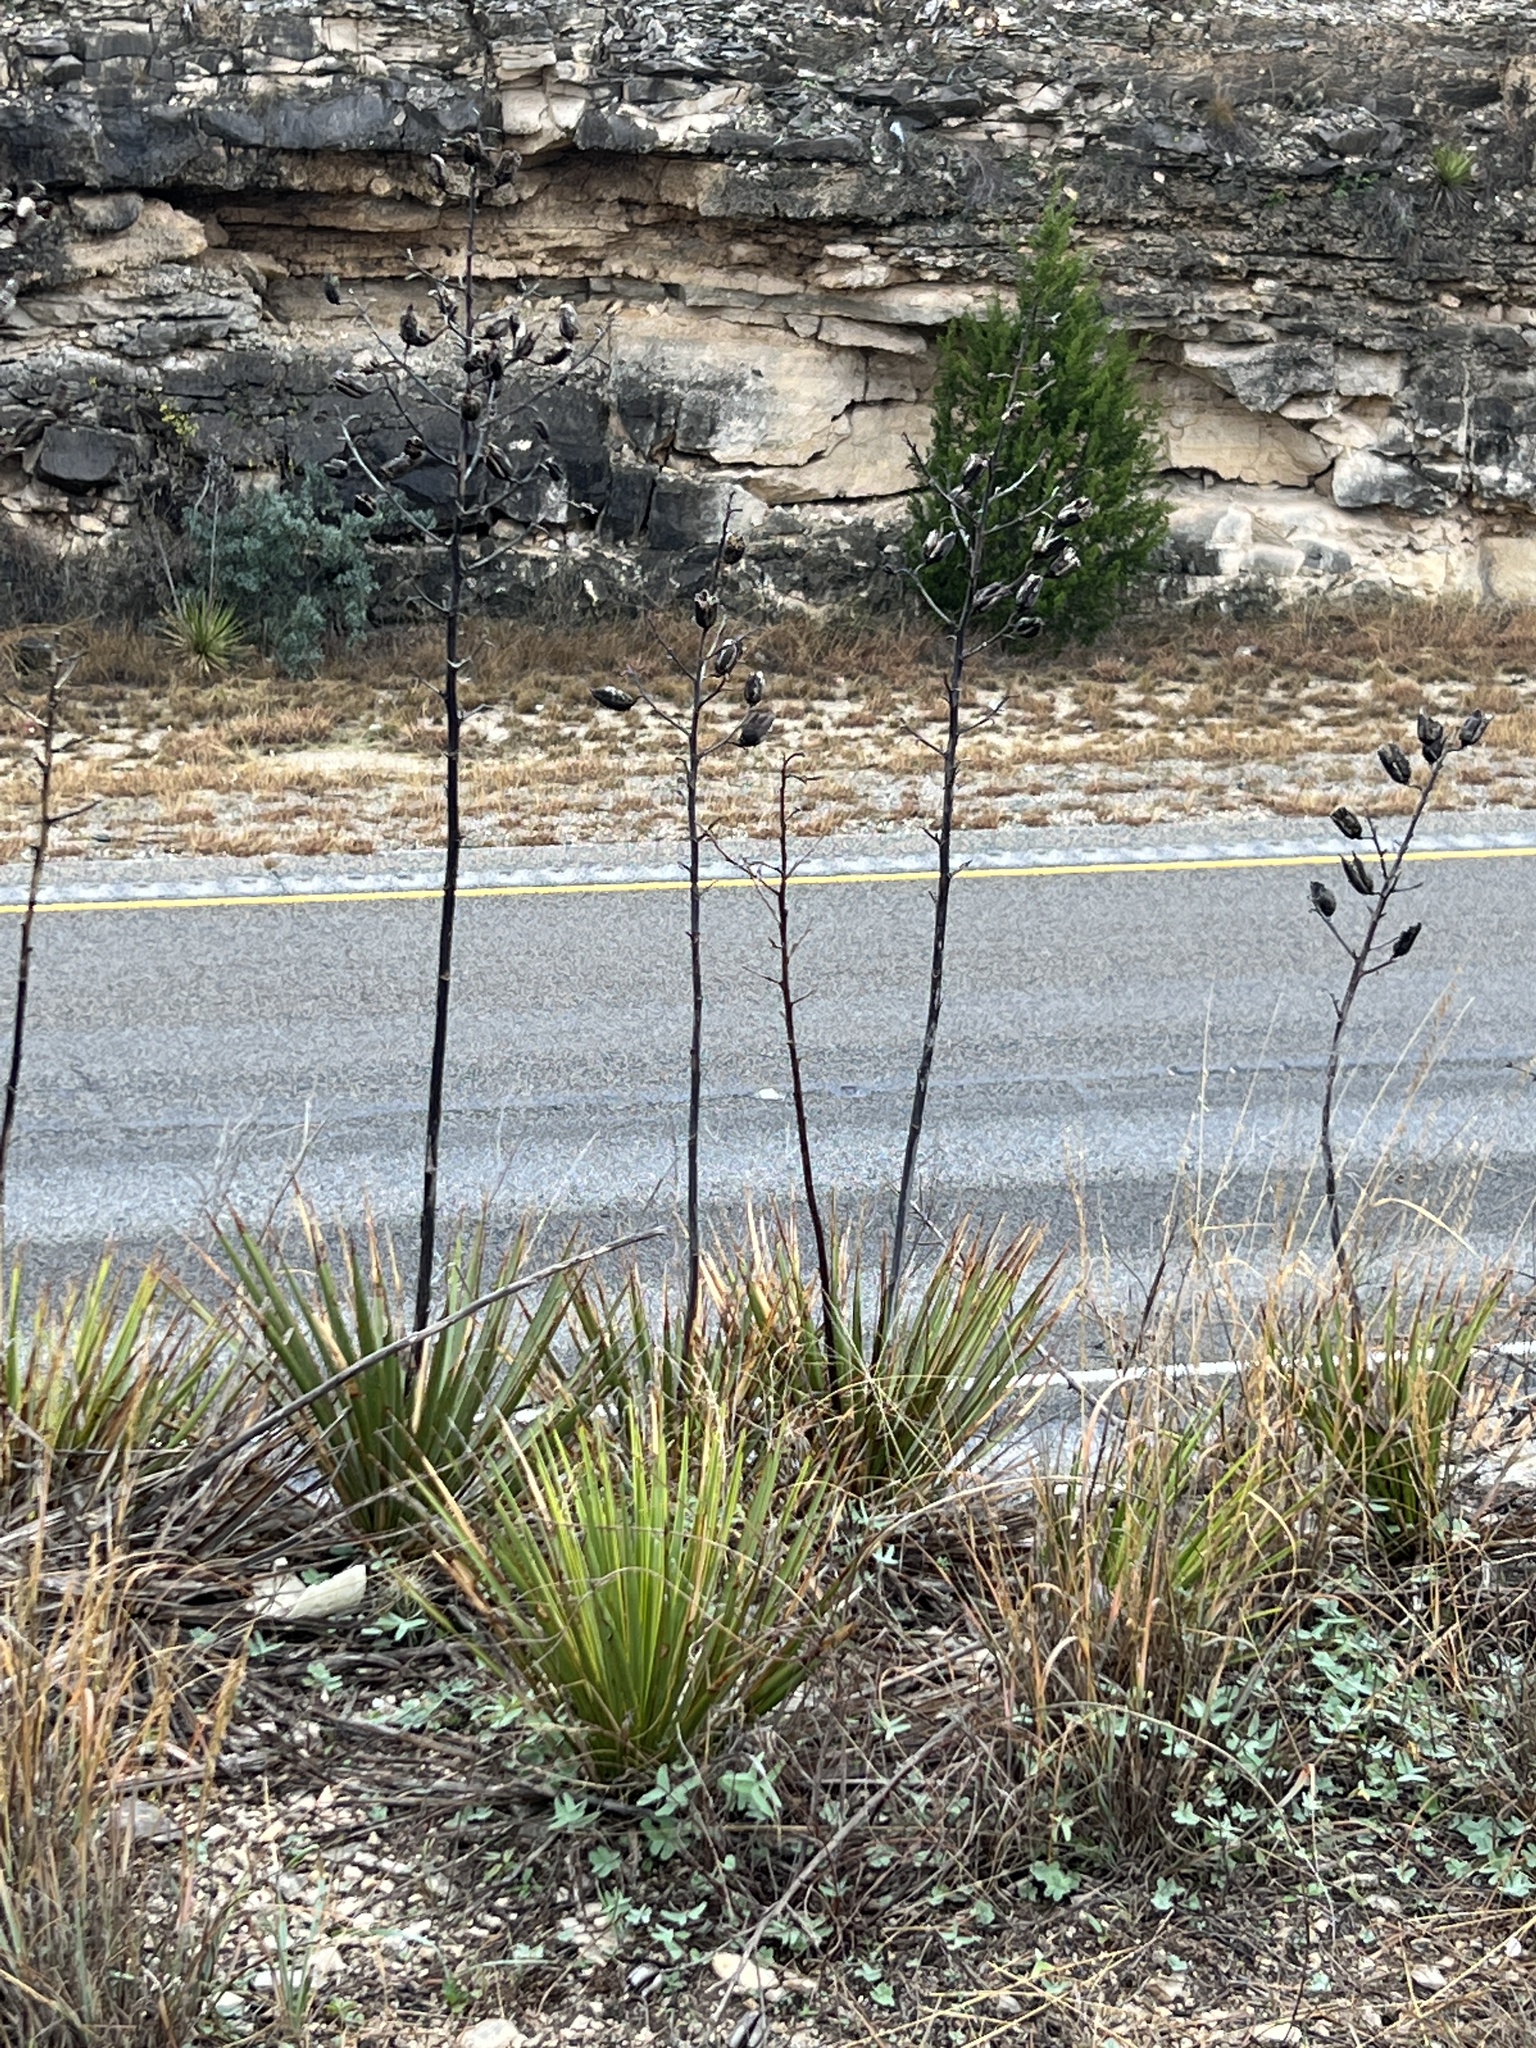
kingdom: Plantae
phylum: Tracheophyta
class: Liliopsida
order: Asparagales
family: Asparagaceae
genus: Yucca
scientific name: Yucca reverchonii
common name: San angelo yucca
